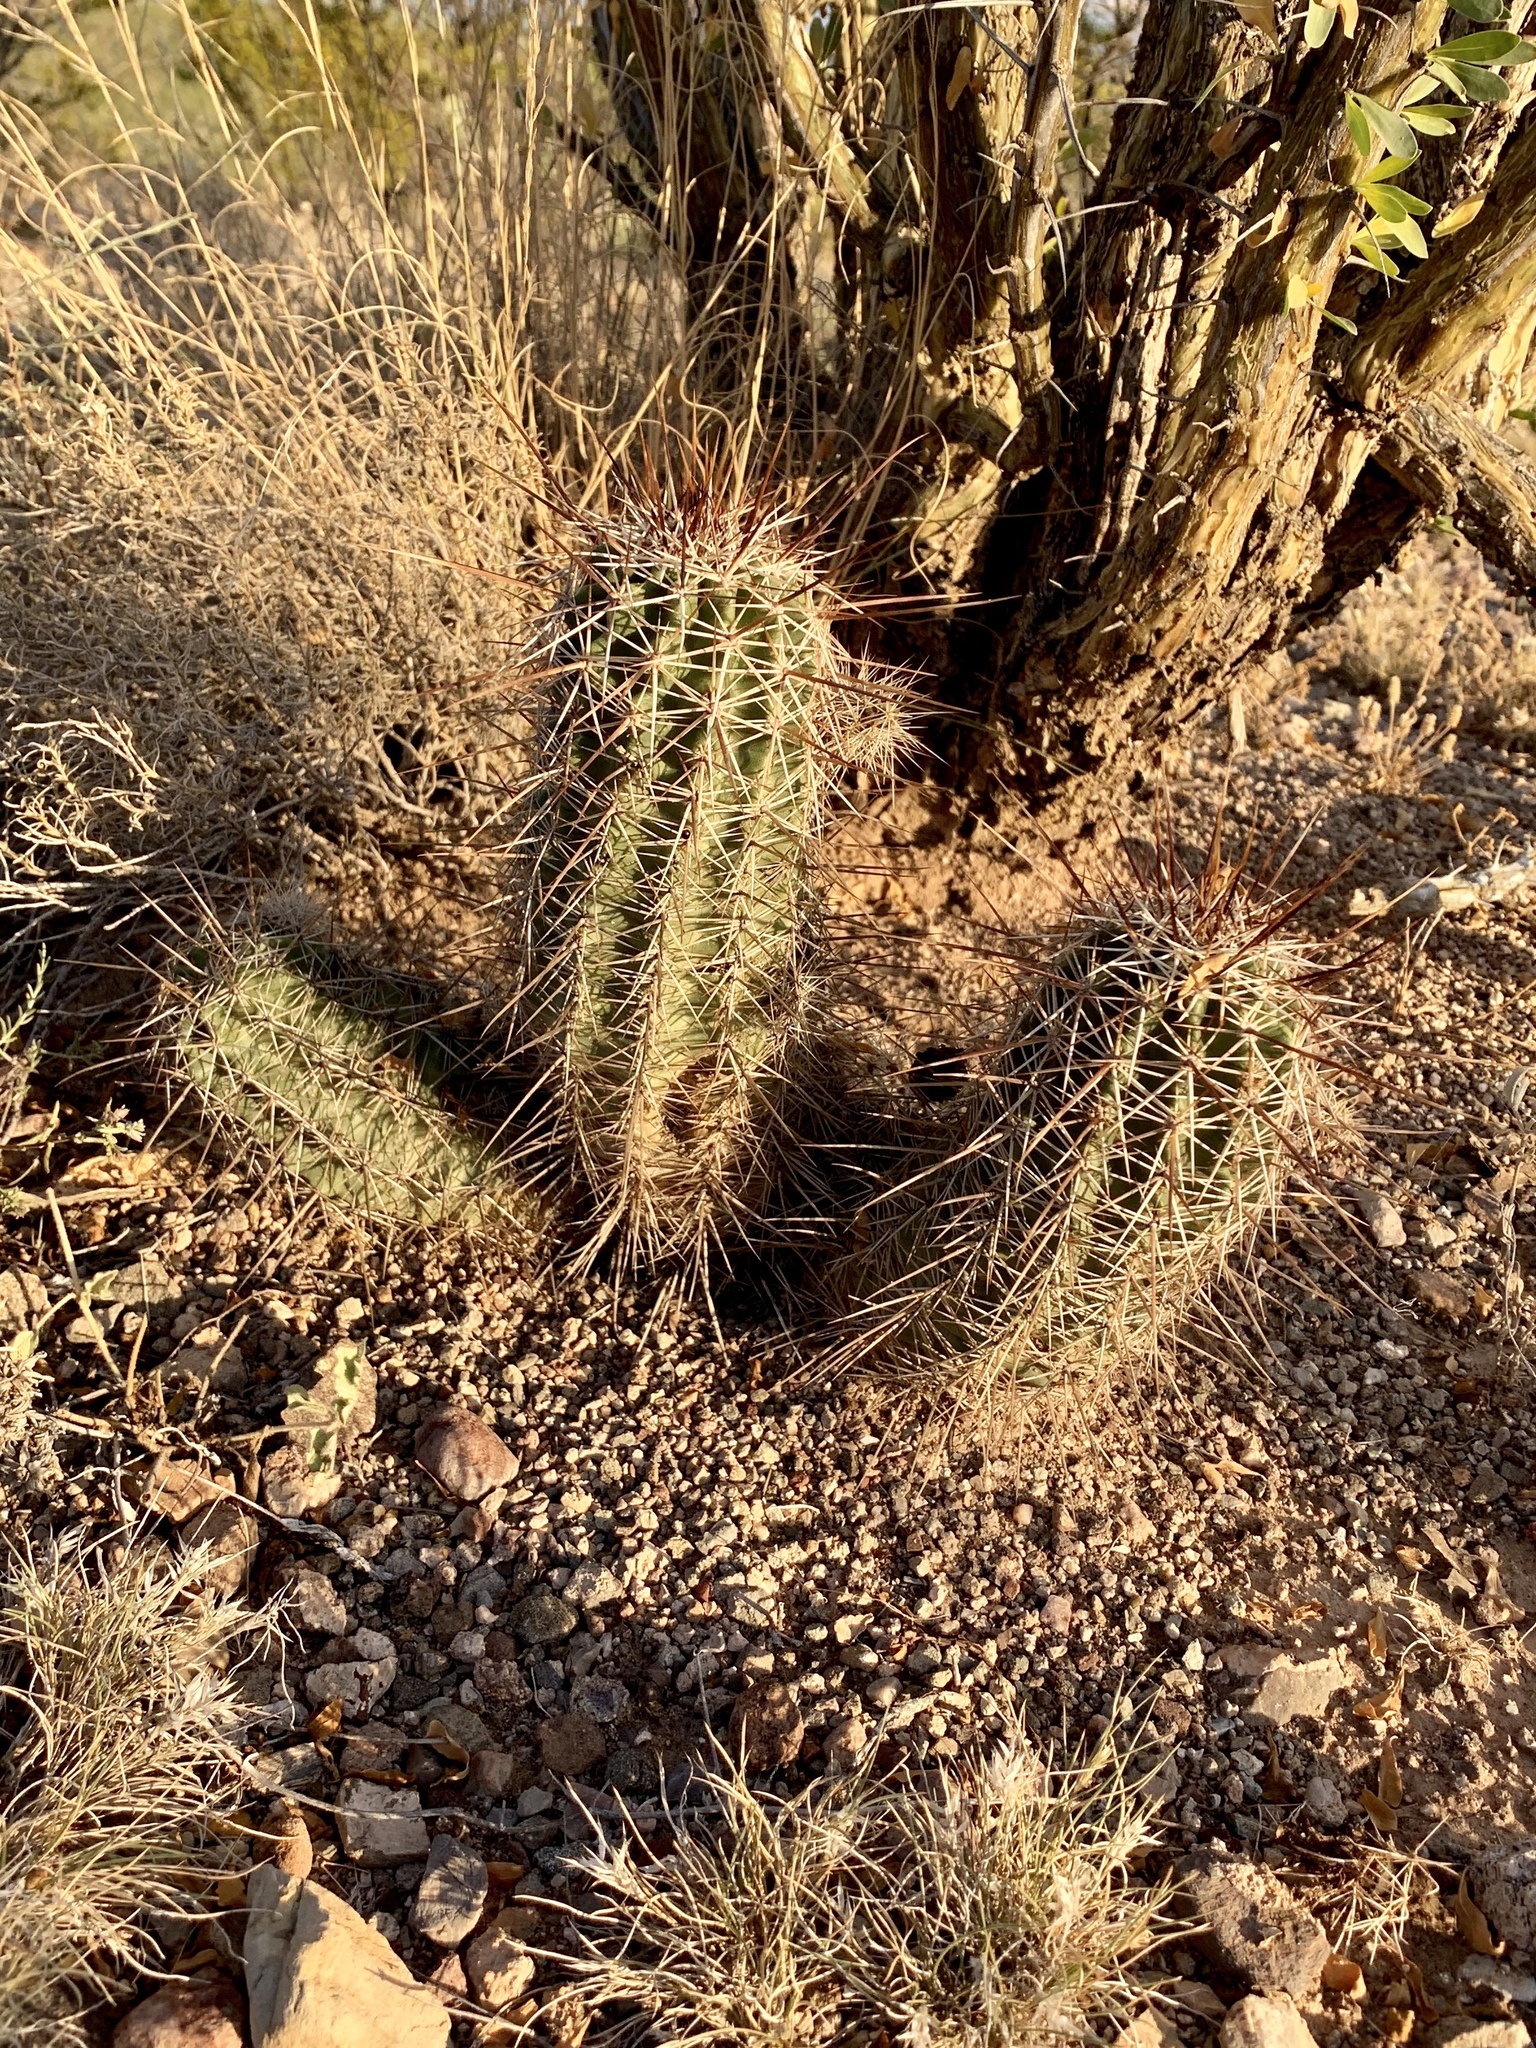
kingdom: Plantae
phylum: Tracheophyta
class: Magnoliopsida
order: Caryophyllales
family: Cactaceae
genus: Echinocereus
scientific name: Echinocereus fasciculatus
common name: Bundle hedgehog
